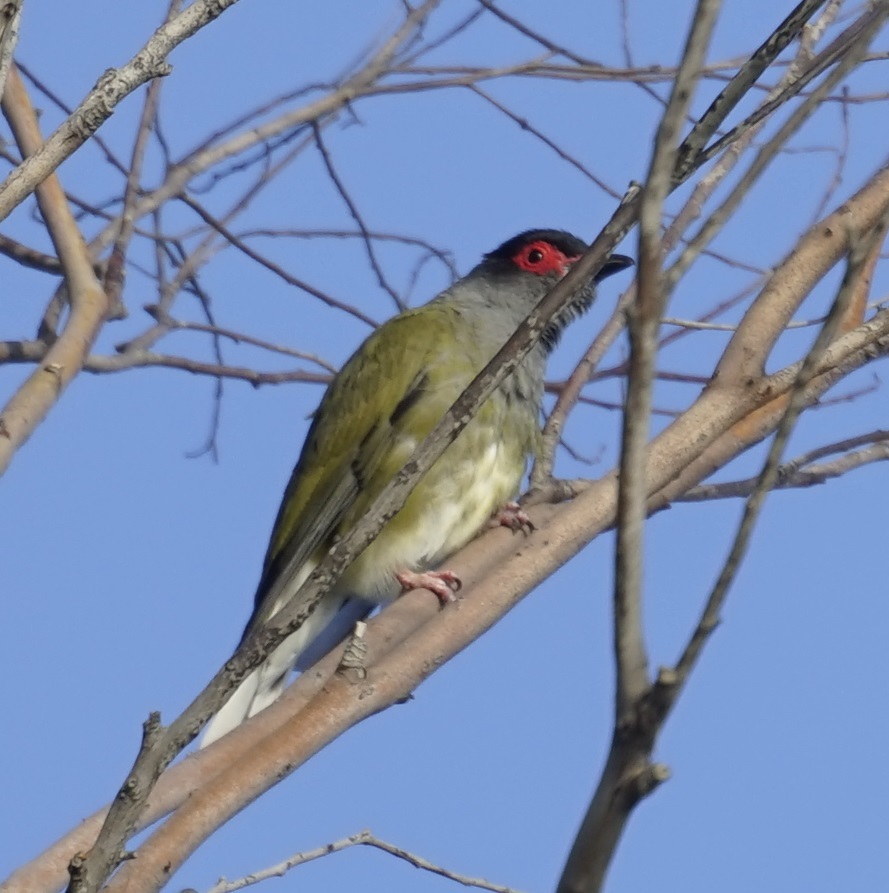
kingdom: Animalia
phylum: Chordata
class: Aves
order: Passeriformes
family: Oriolidae
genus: Sphecotheres
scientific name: Sphecotheres vieilloti
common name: Australasian figbird
